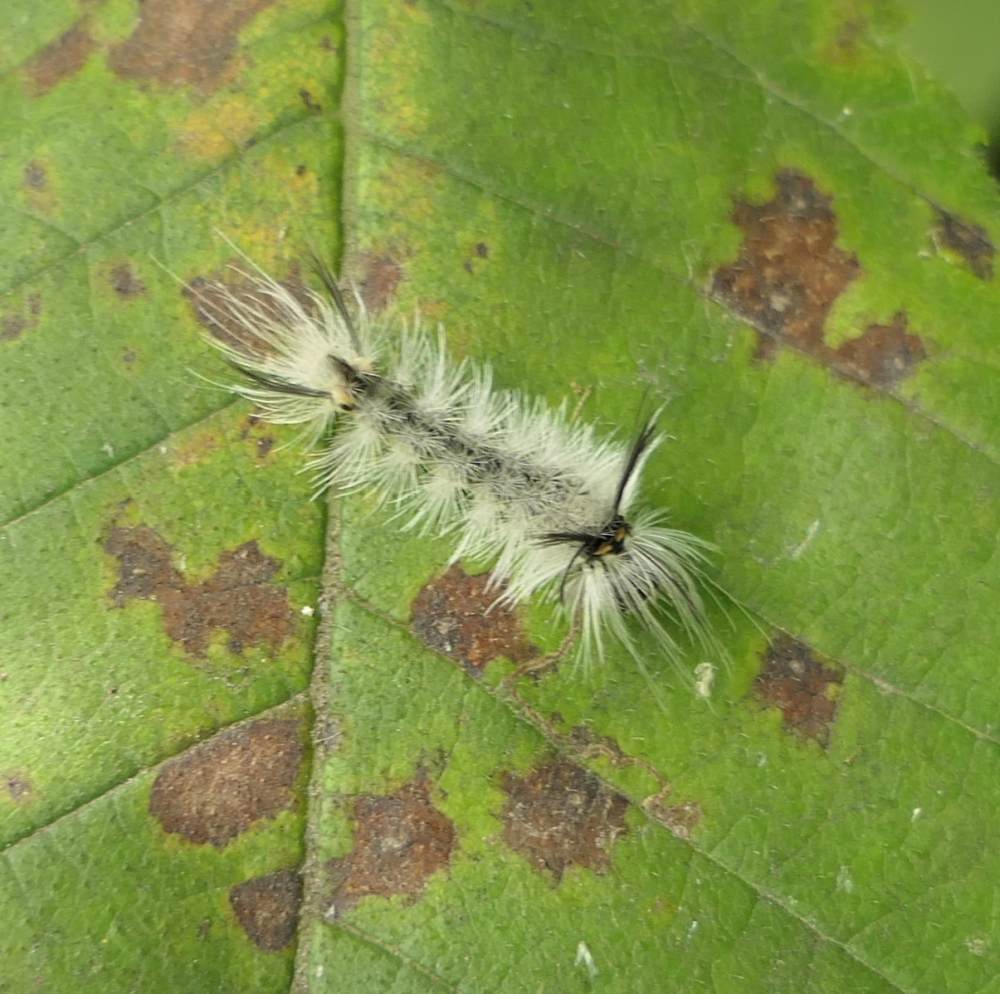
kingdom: Animalia
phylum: Arthropoda
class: Insecta
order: Lepidoptera
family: Erebidae
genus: Halysidota
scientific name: Halysidota tessellaris
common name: Banded tussock moth
